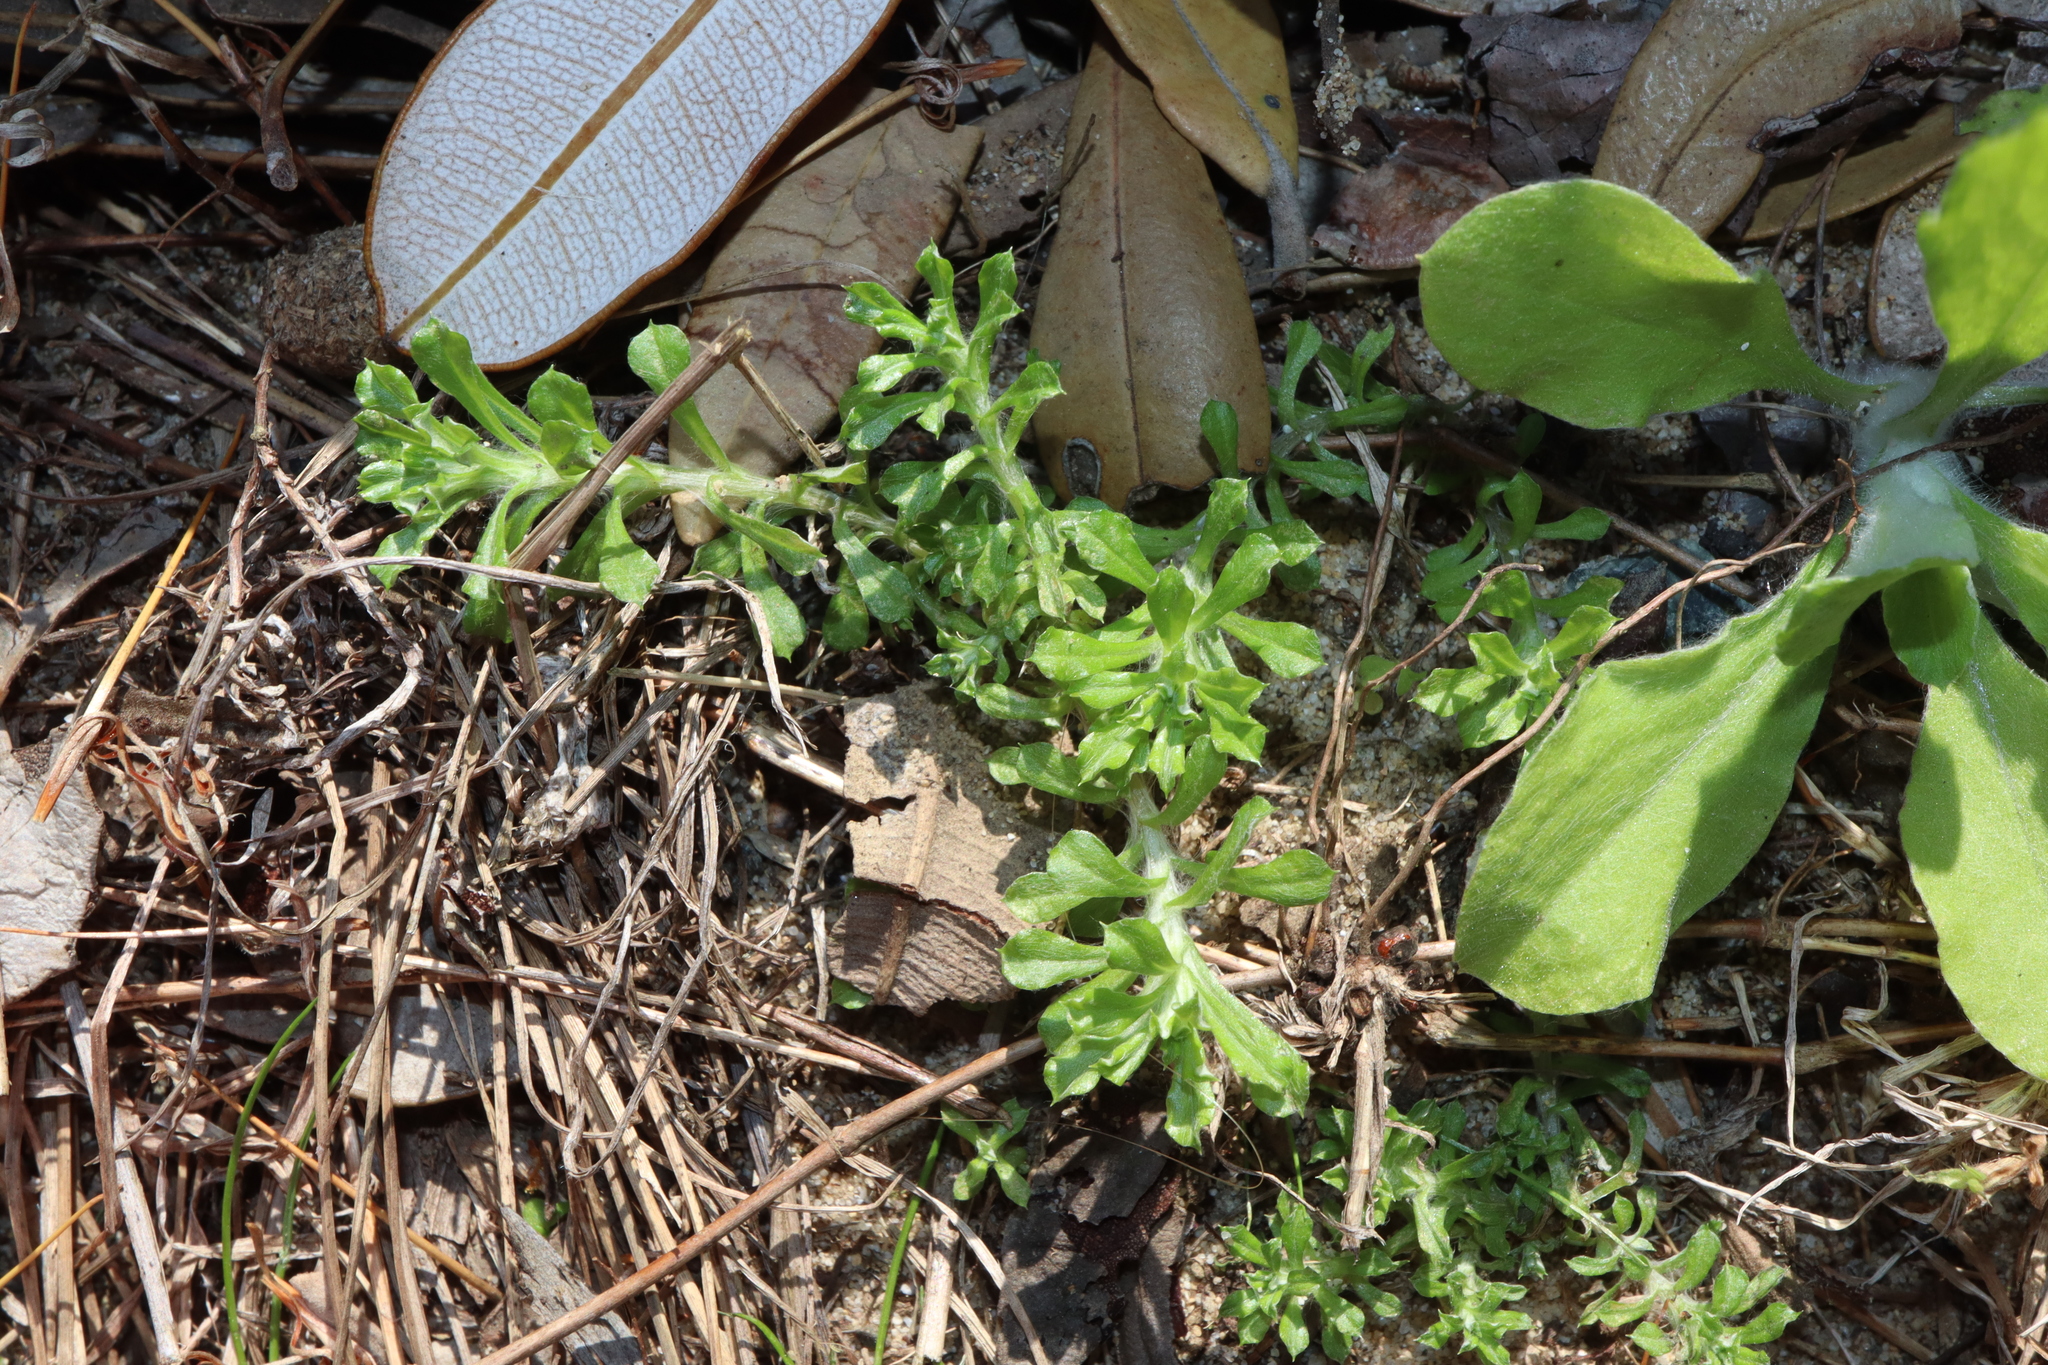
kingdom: Plantae
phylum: Tracheophyta
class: Magnoliopsida
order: Asterales
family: Asteraceae
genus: Facelis
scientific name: Facelis retusa
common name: Annual trampweed
